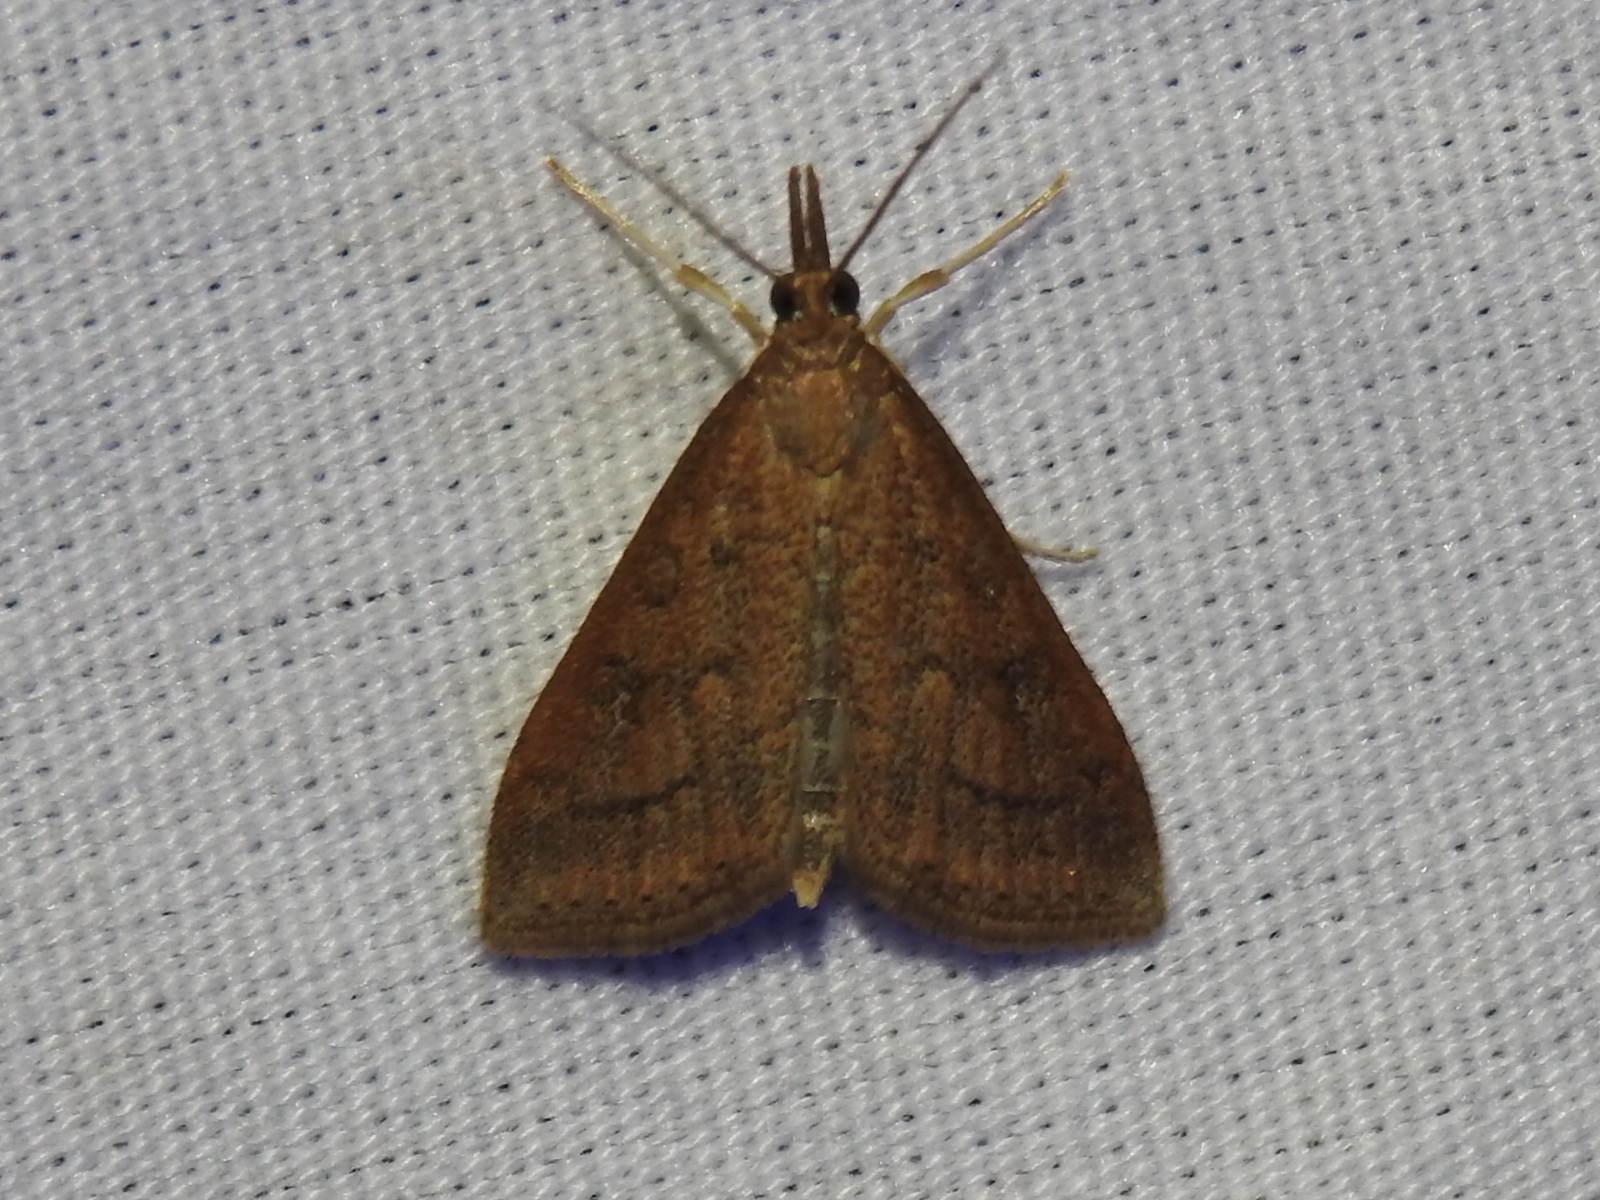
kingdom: Animalia
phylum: Arthropoda
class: Insecta
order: Lepidoptera
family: Crambidae
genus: Udea
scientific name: Udea rubigalis
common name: Celery leaftier moth
